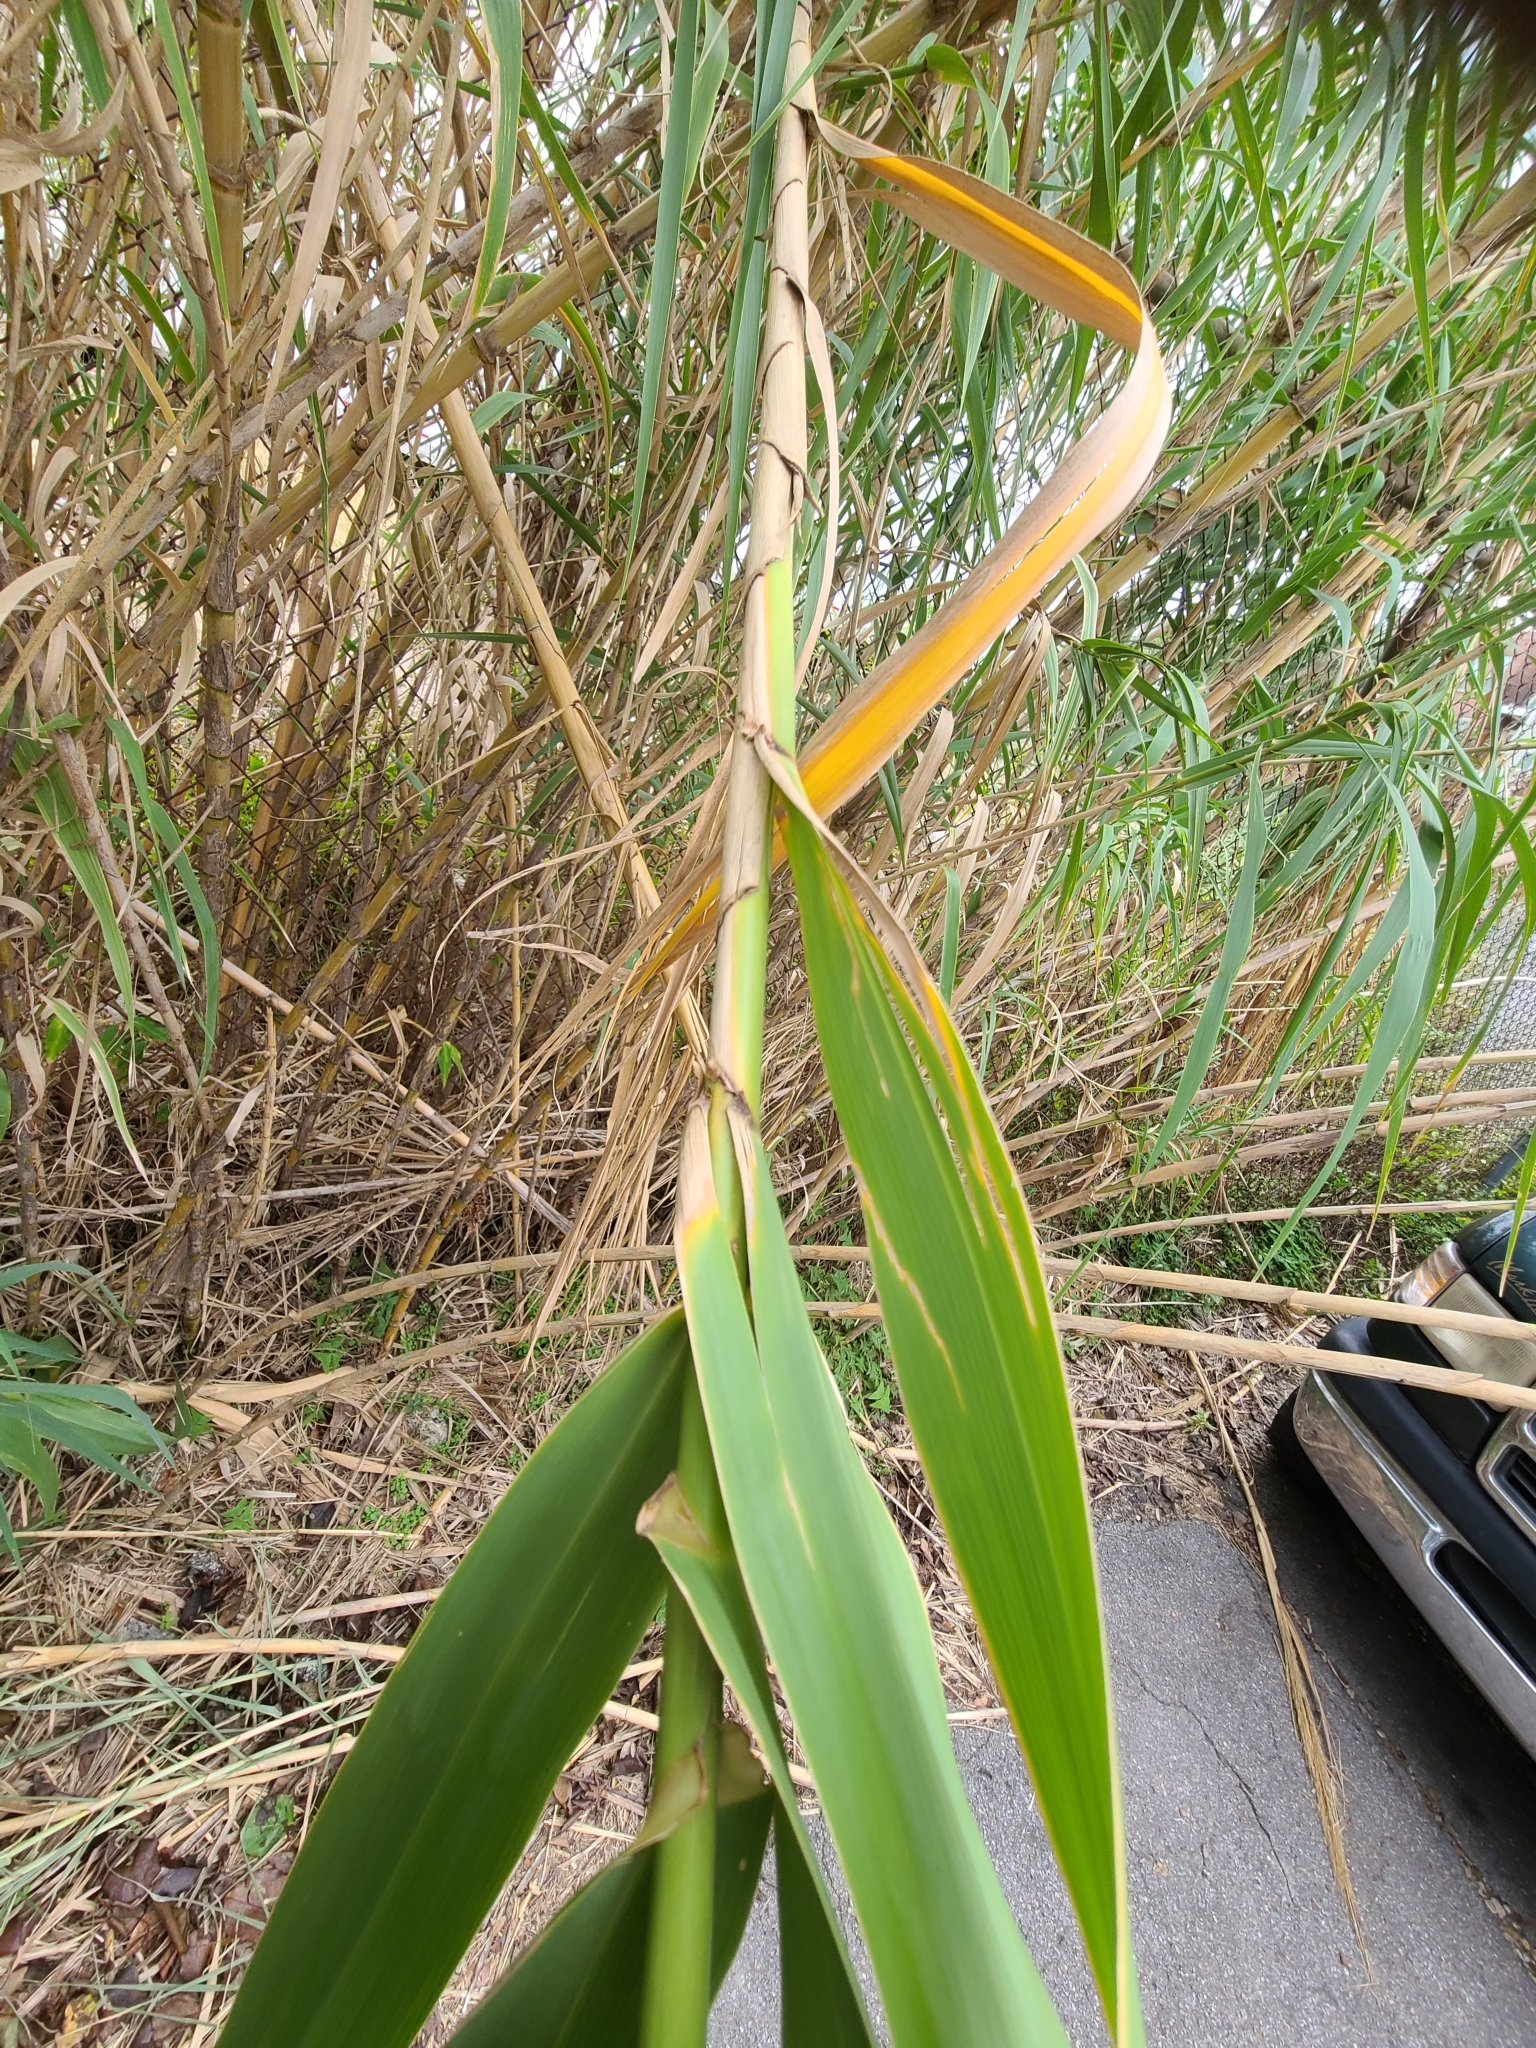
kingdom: Plantae
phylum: Tracheophyta
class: Liliopsida
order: Poales
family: Poaceae
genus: Arundo
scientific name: Arundo donax
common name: Giant reed
